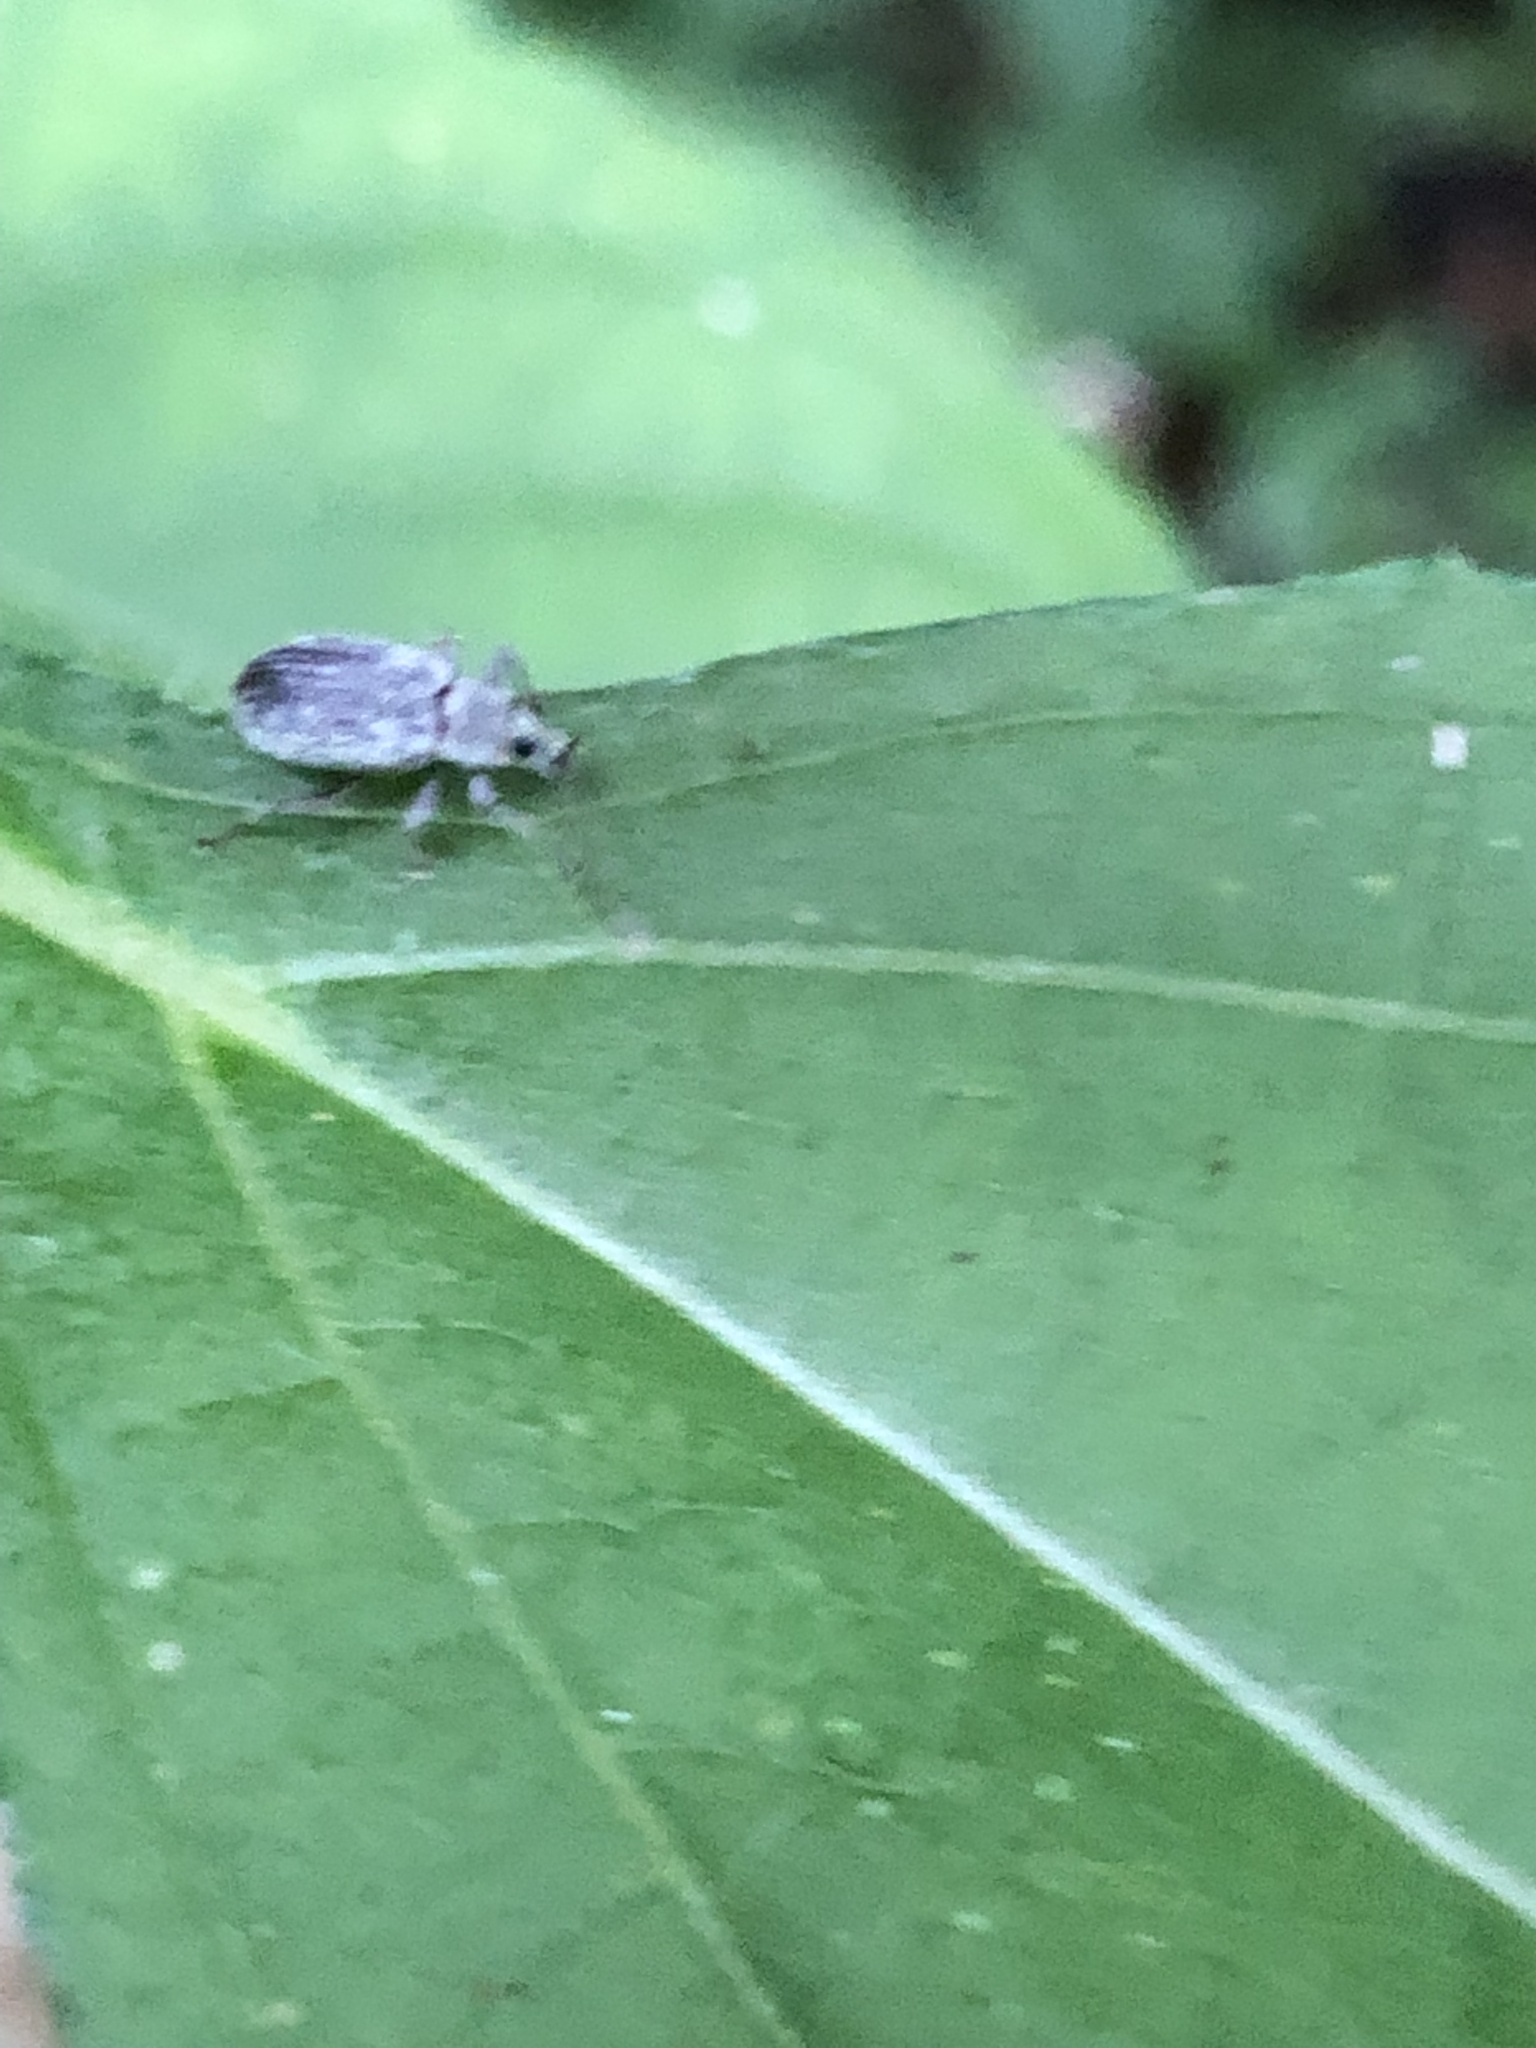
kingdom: Animalia
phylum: Arthropoda
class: Insecta
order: Coleoptera
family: Curculionidae
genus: Cyrtepistomus
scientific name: Cyrtepistomus castaneus
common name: Weevil
